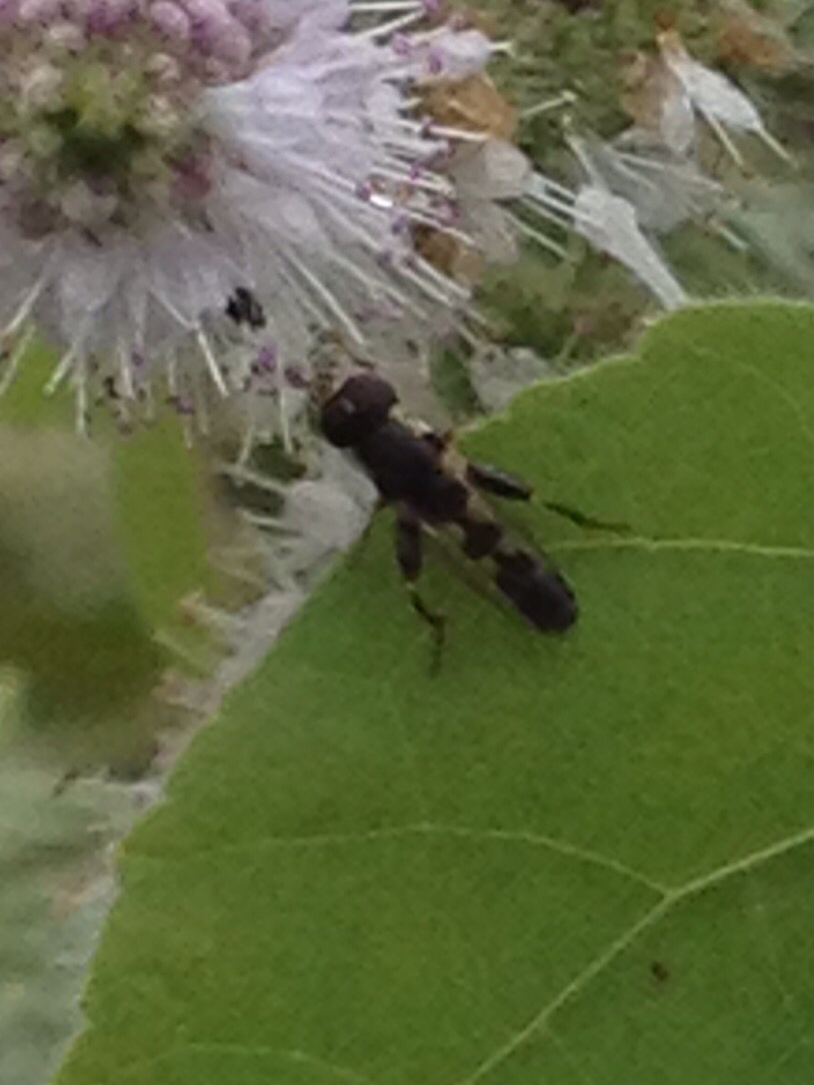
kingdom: Animalia
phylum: Arthropoda
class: Insecta
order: Diptera
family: Syrphidae
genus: Syritta
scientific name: Syritta pipiens
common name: Hover fly
